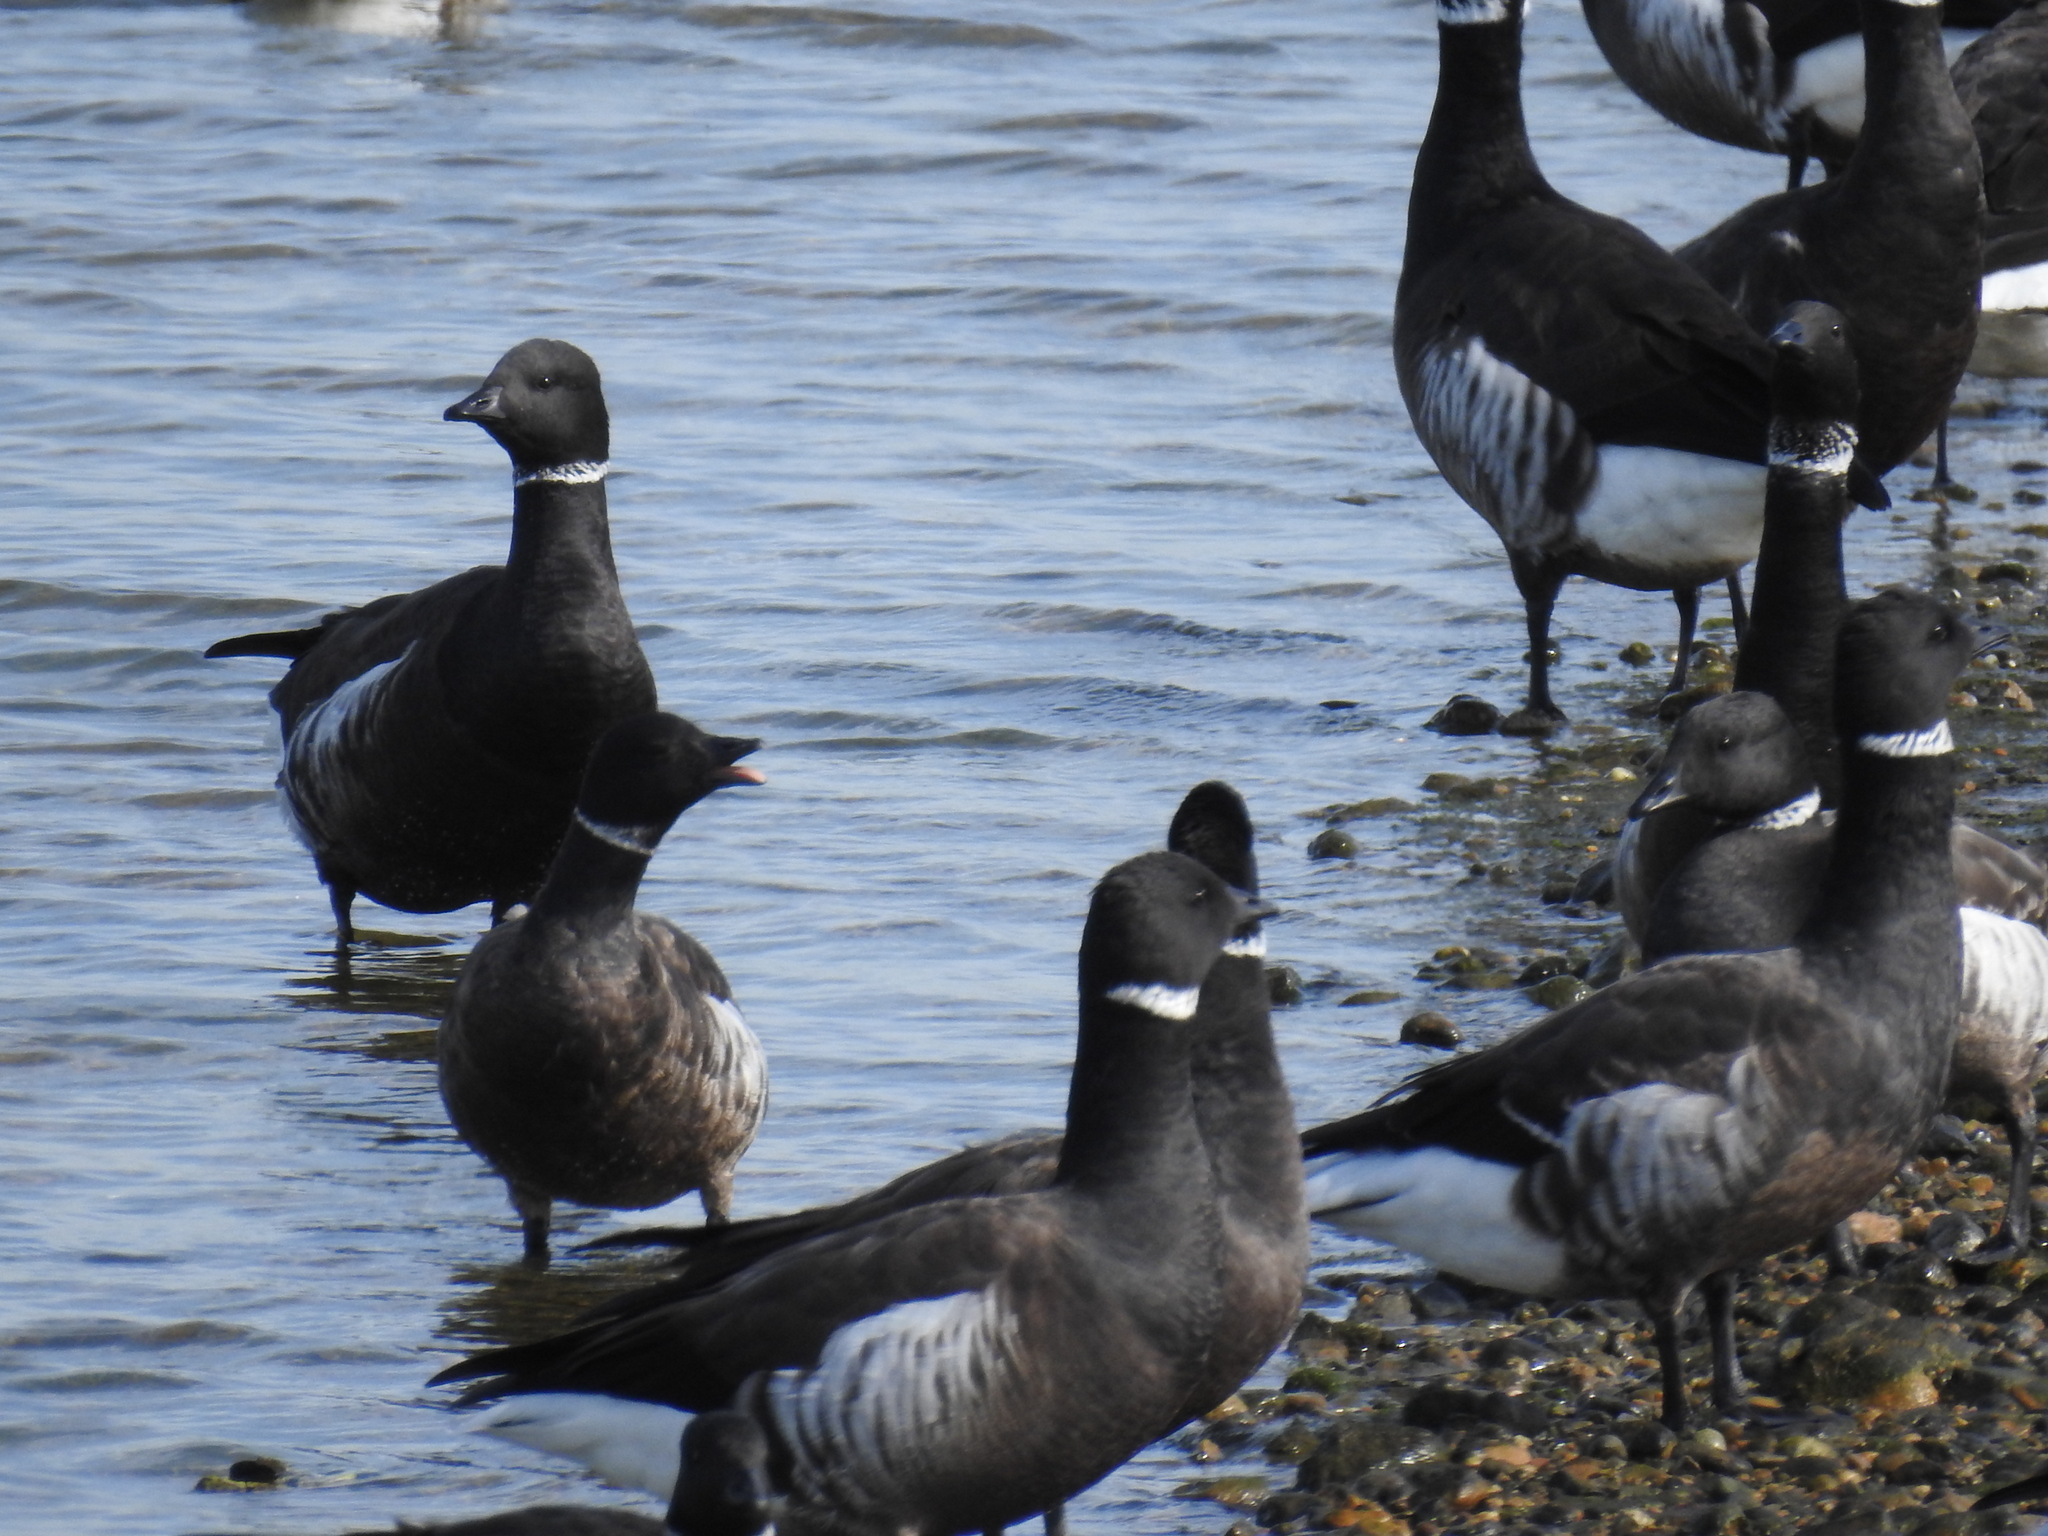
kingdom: Animalia
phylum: Chordata
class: Aves
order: Anseriformes
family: Anatidae
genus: Branta
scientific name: Branta bernicla
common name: Brant goose
